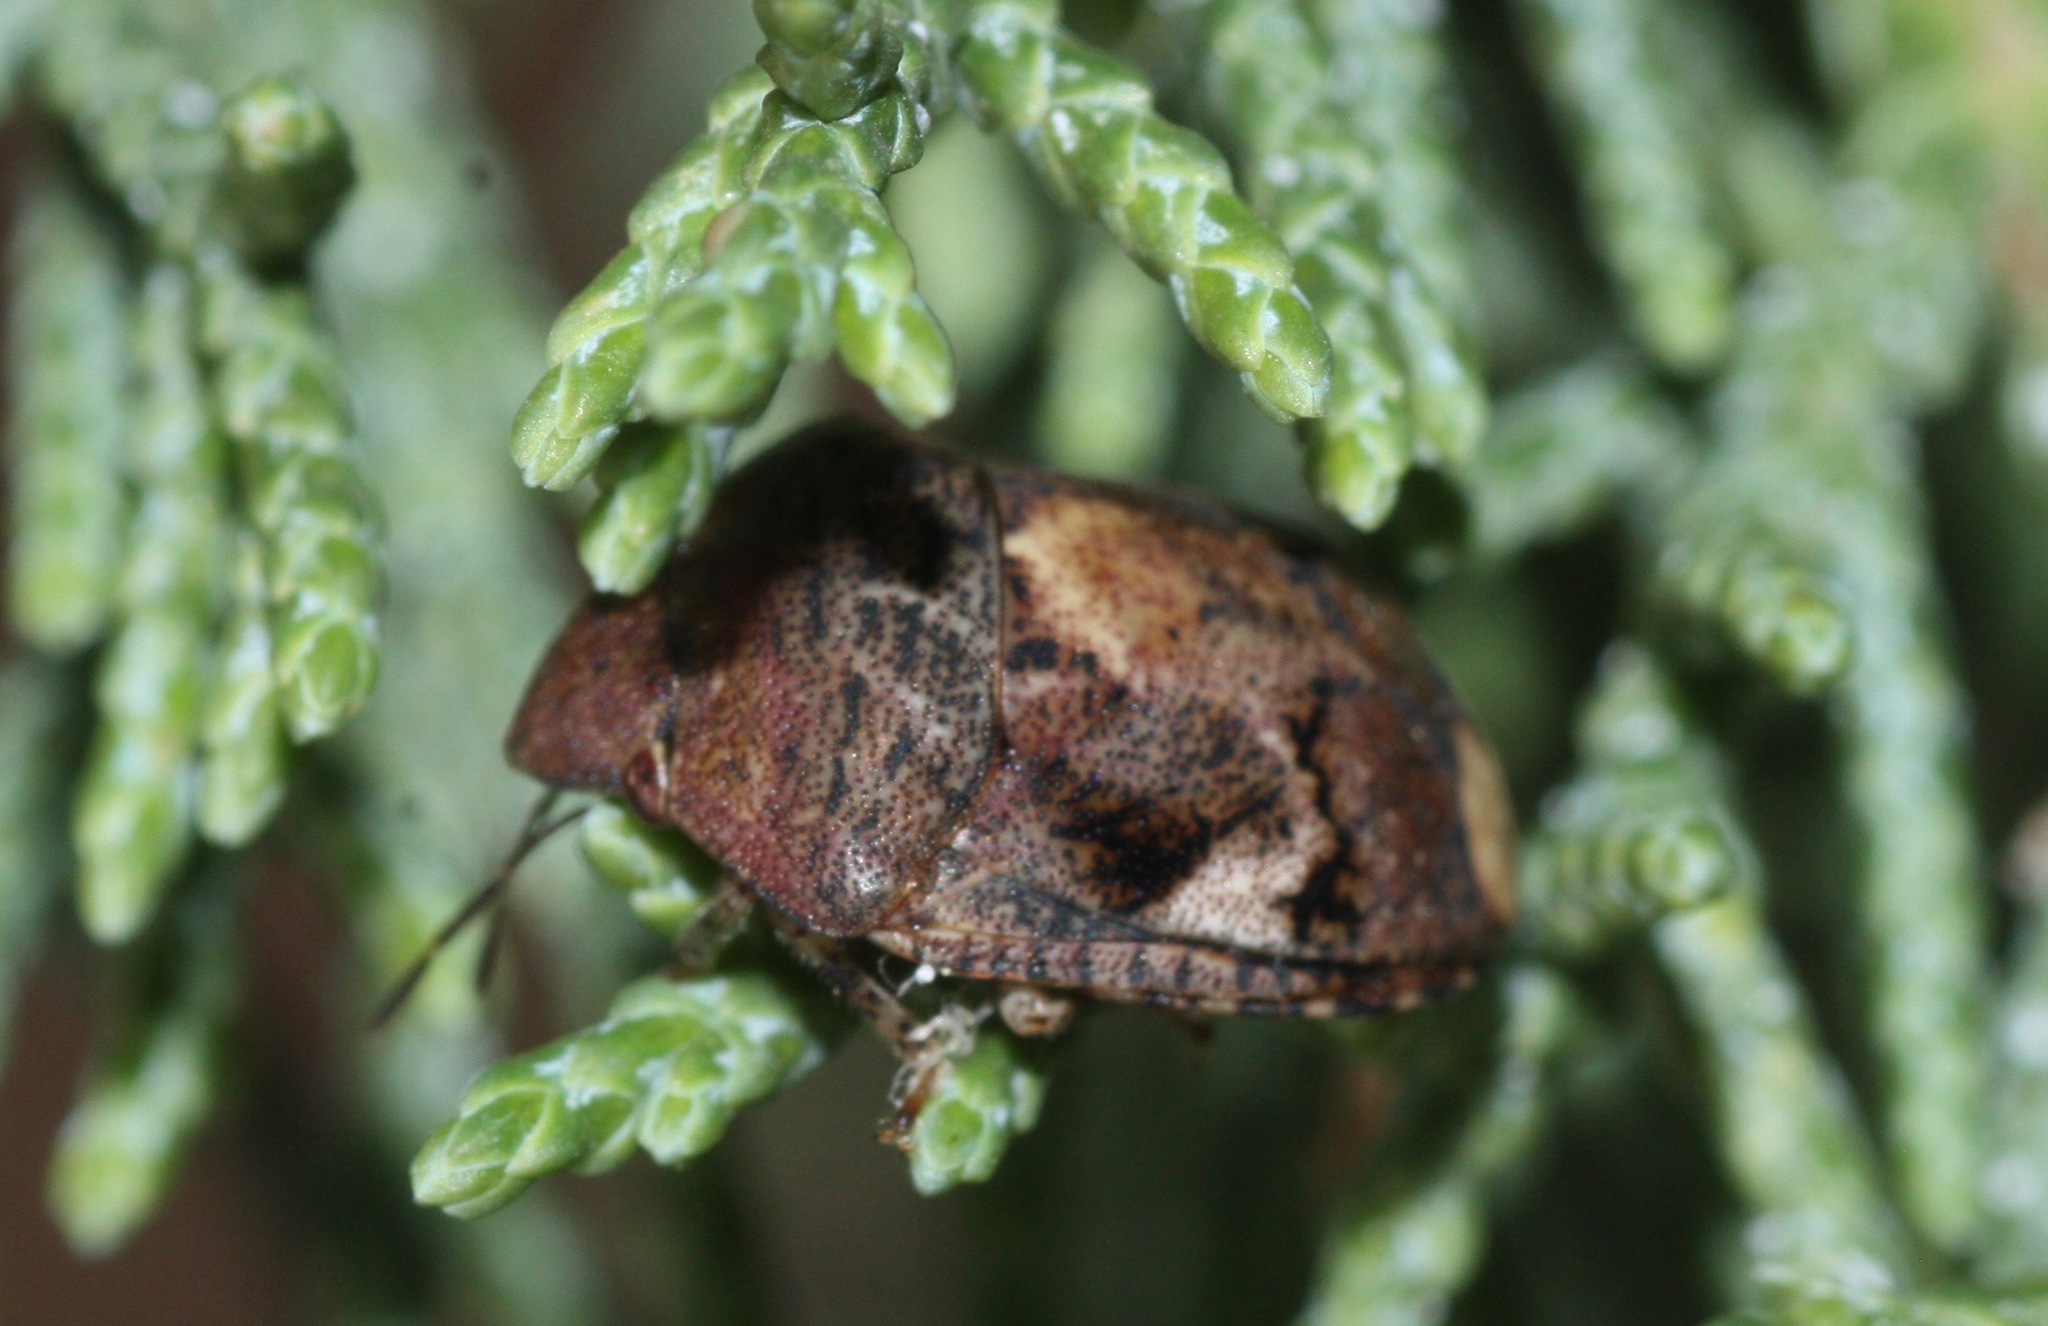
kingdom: Animalia
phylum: Arthropoda
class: Insecta
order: Hemiptera
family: Scutelleridae
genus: Stethaulax
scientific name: Stethaulax marmoratus
